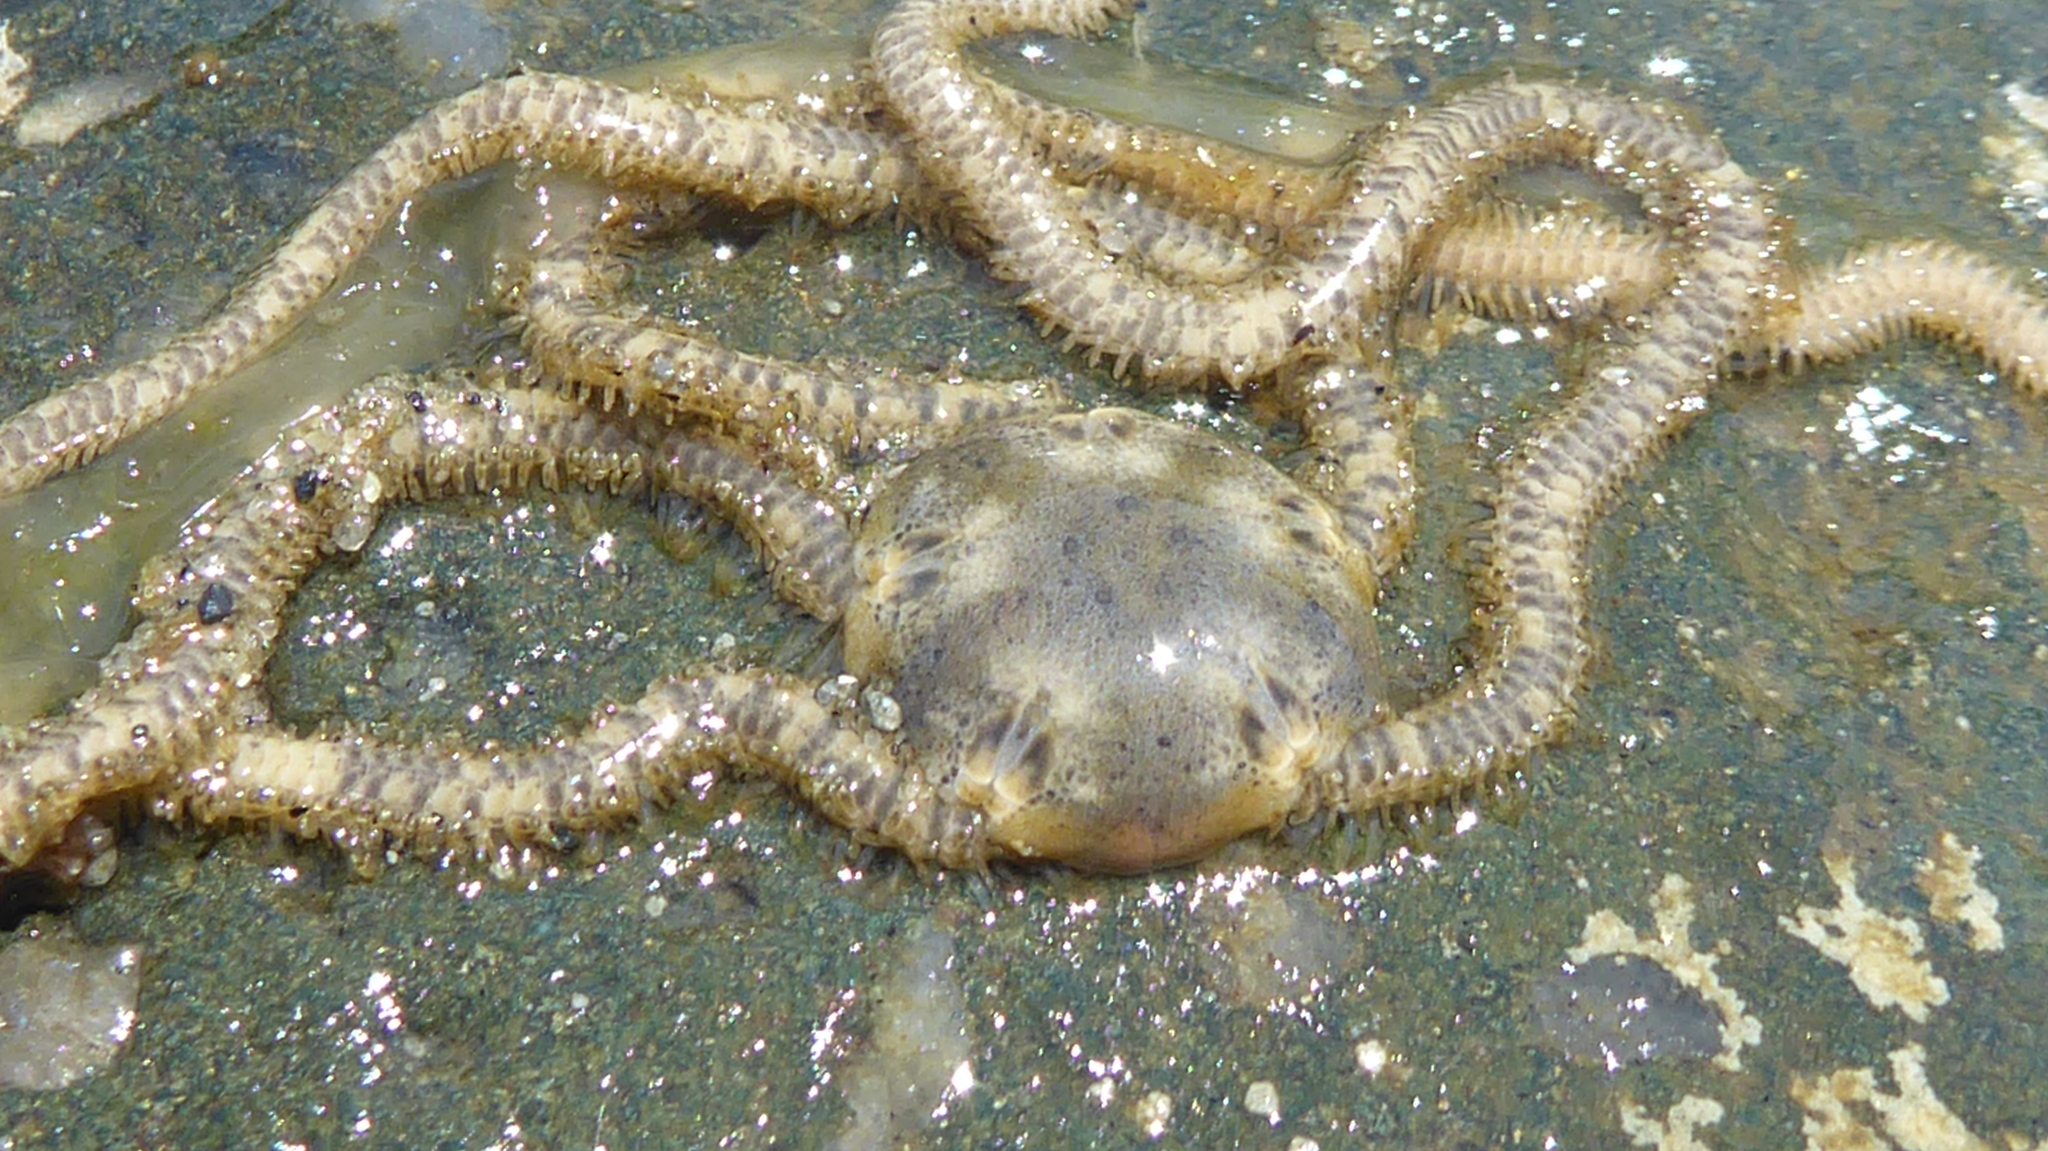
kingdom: Animalia
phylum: Echinodermata
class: Ophiuroidea
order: Amphilepidida
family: Amphiuridae
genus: Amphiodia
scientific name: Amphiodia occidentalis
